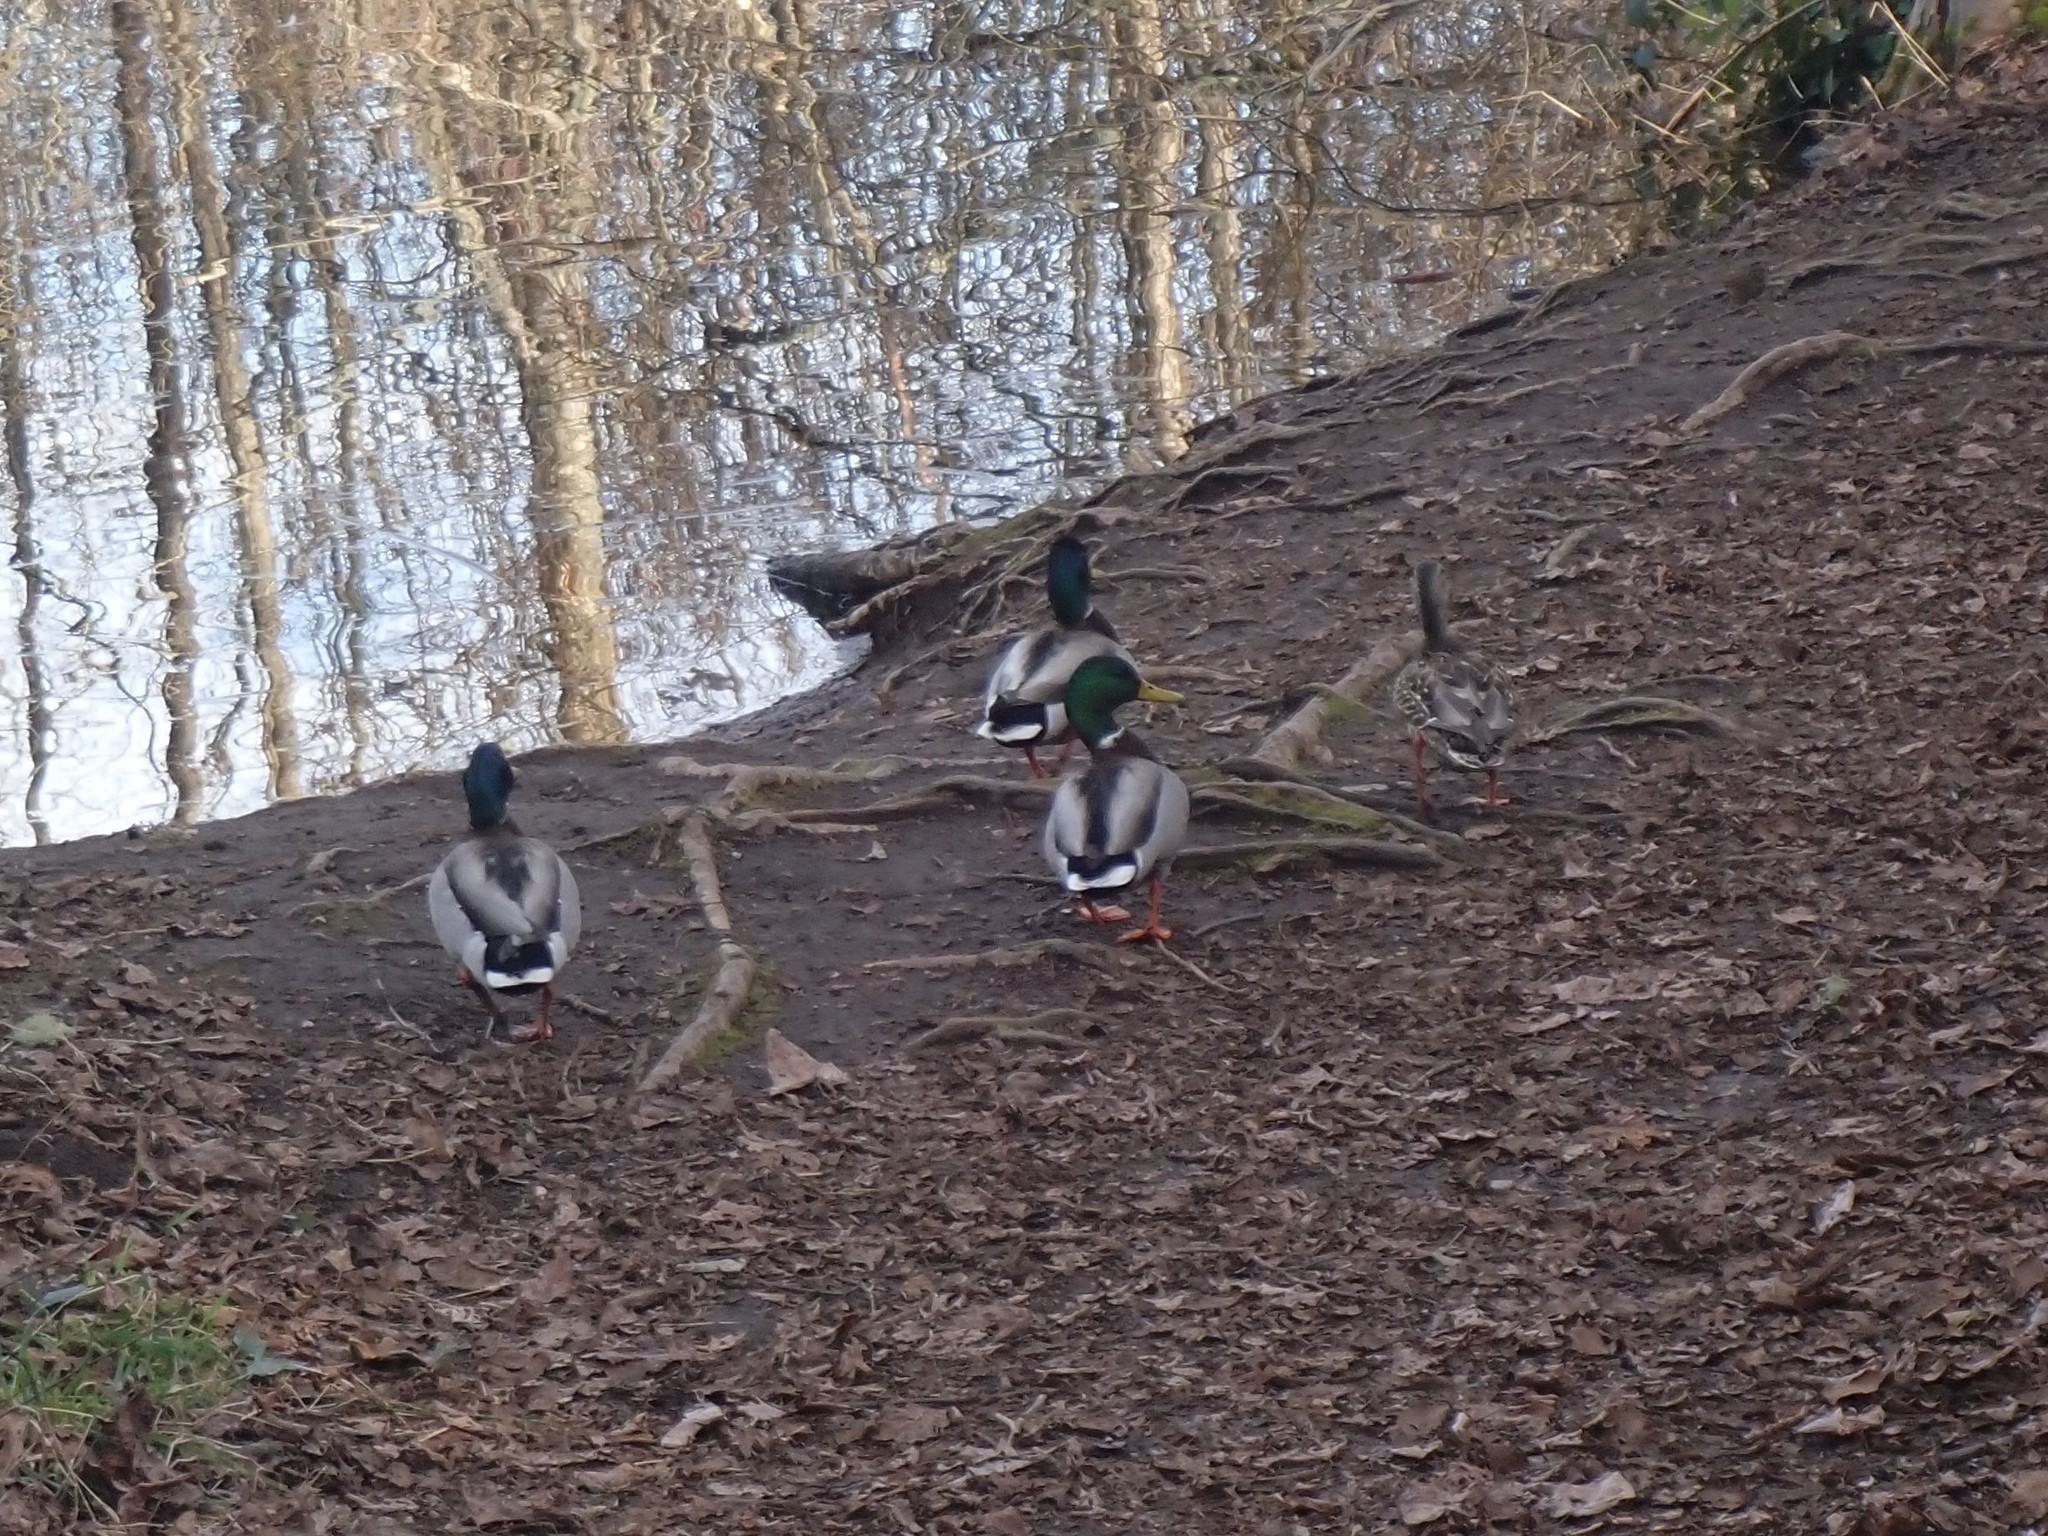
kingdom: Animalia
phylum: Chordata
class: Aves
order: Anseriformes
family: Anatidae
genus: Anas
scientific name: Anas platyrhynchos
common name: Mallard
